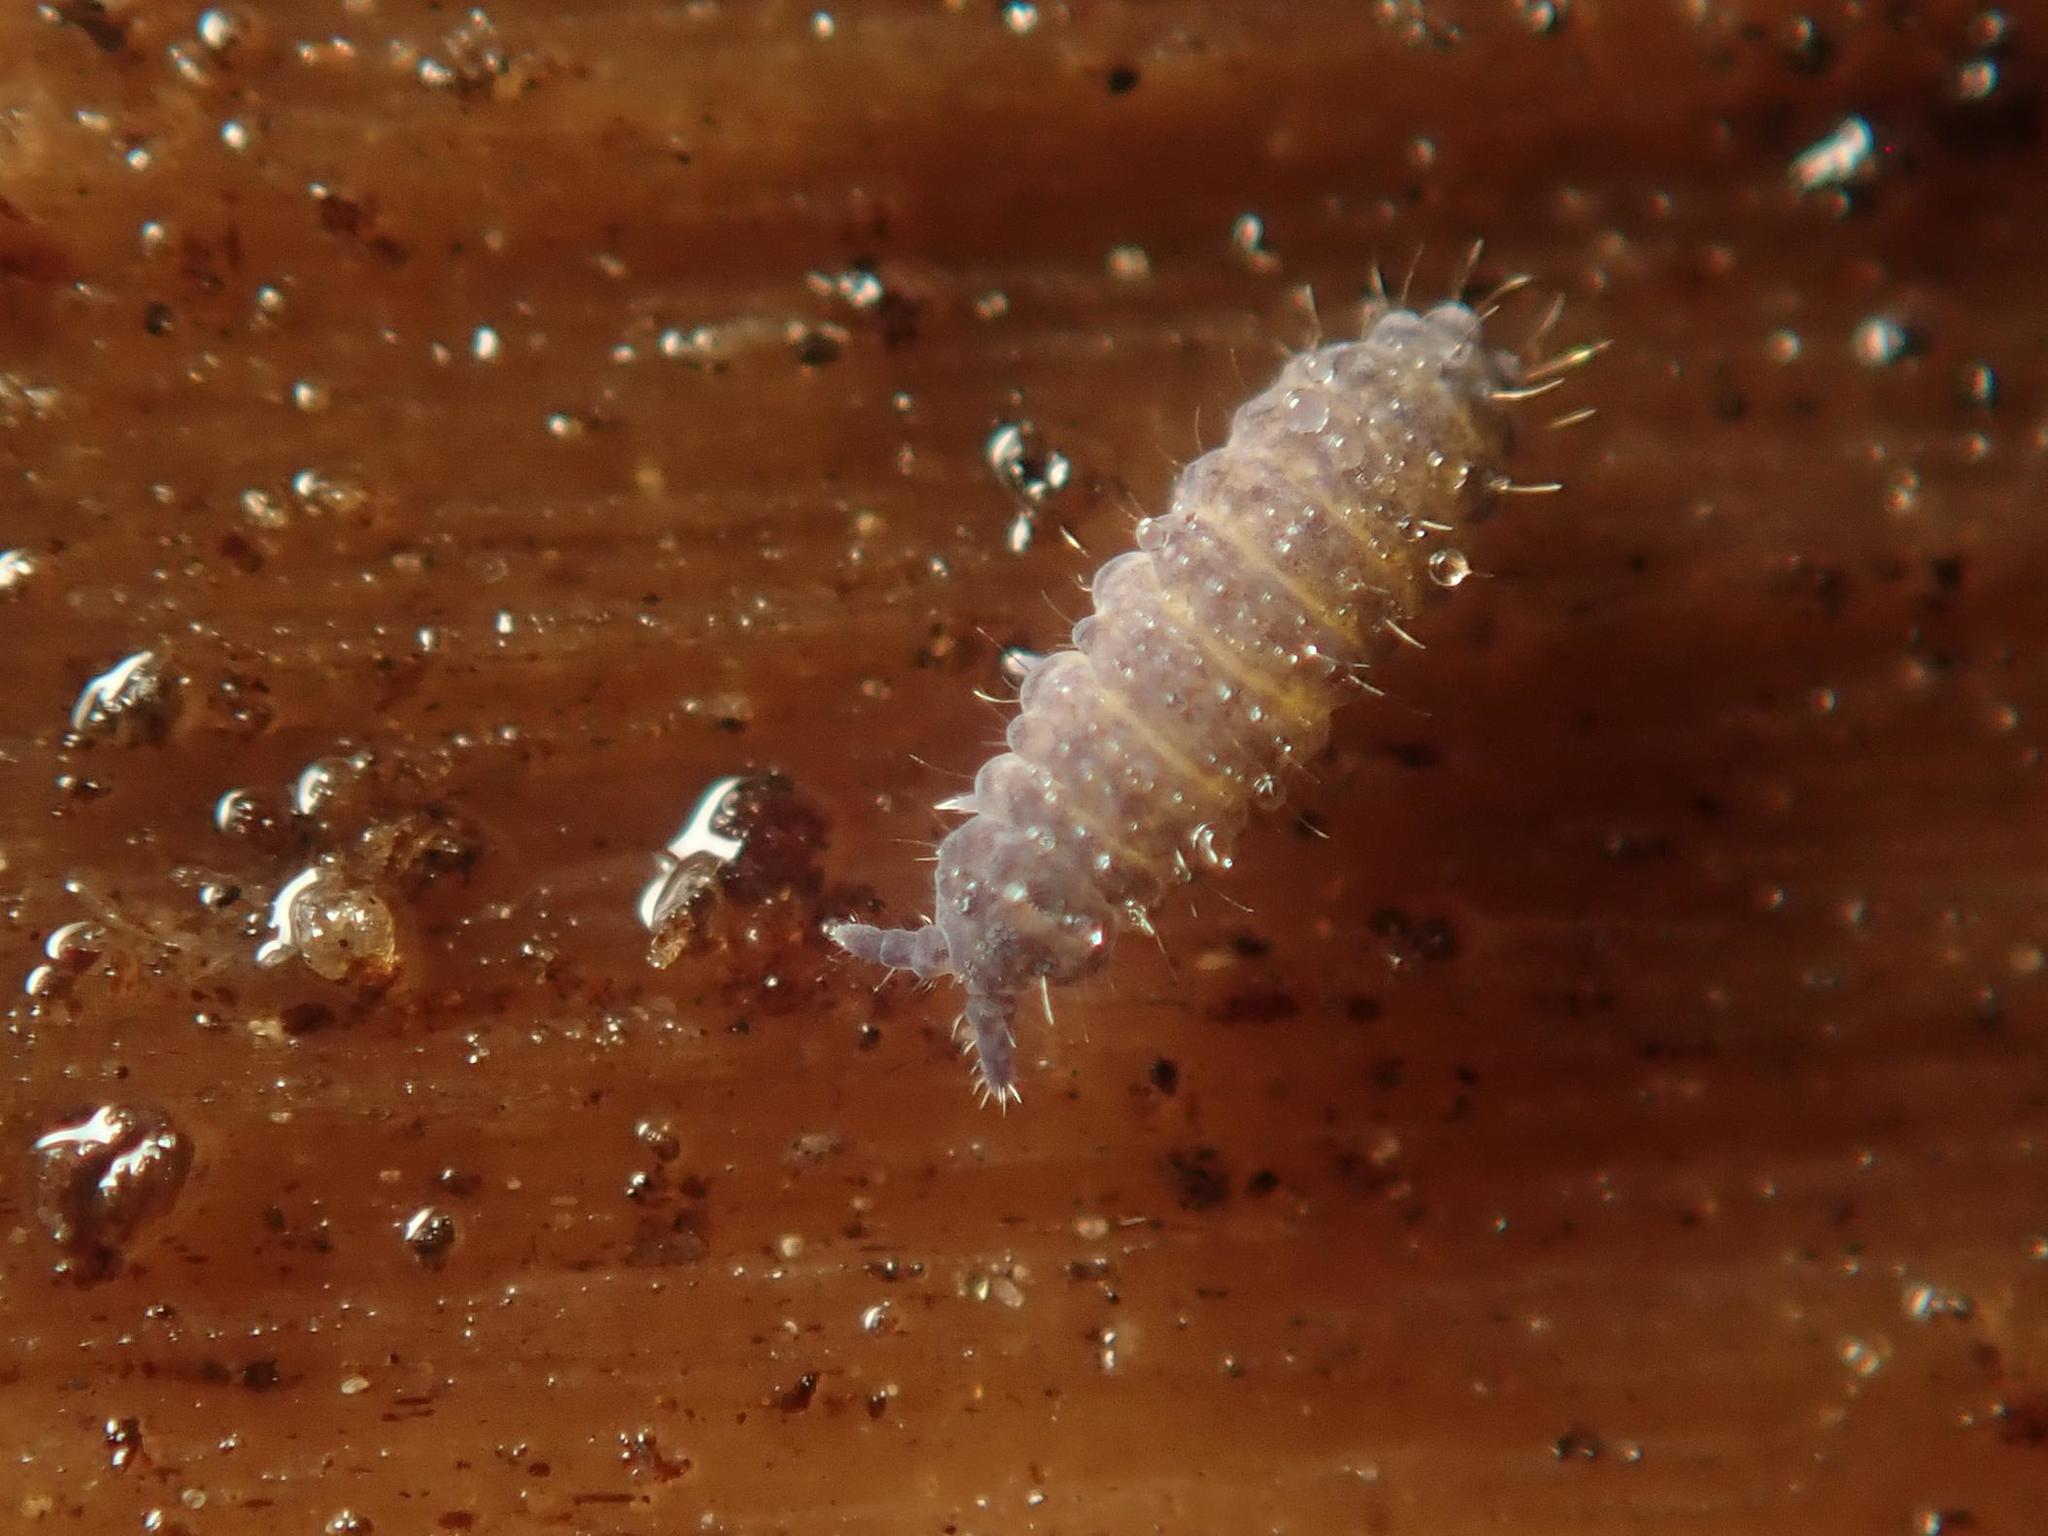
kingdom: Animalia
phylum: Arthropoda
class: Collembola
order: Poduromorpha
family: Neanuridae
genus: Neanura
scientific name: Neanura muscorum
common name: Springtail
